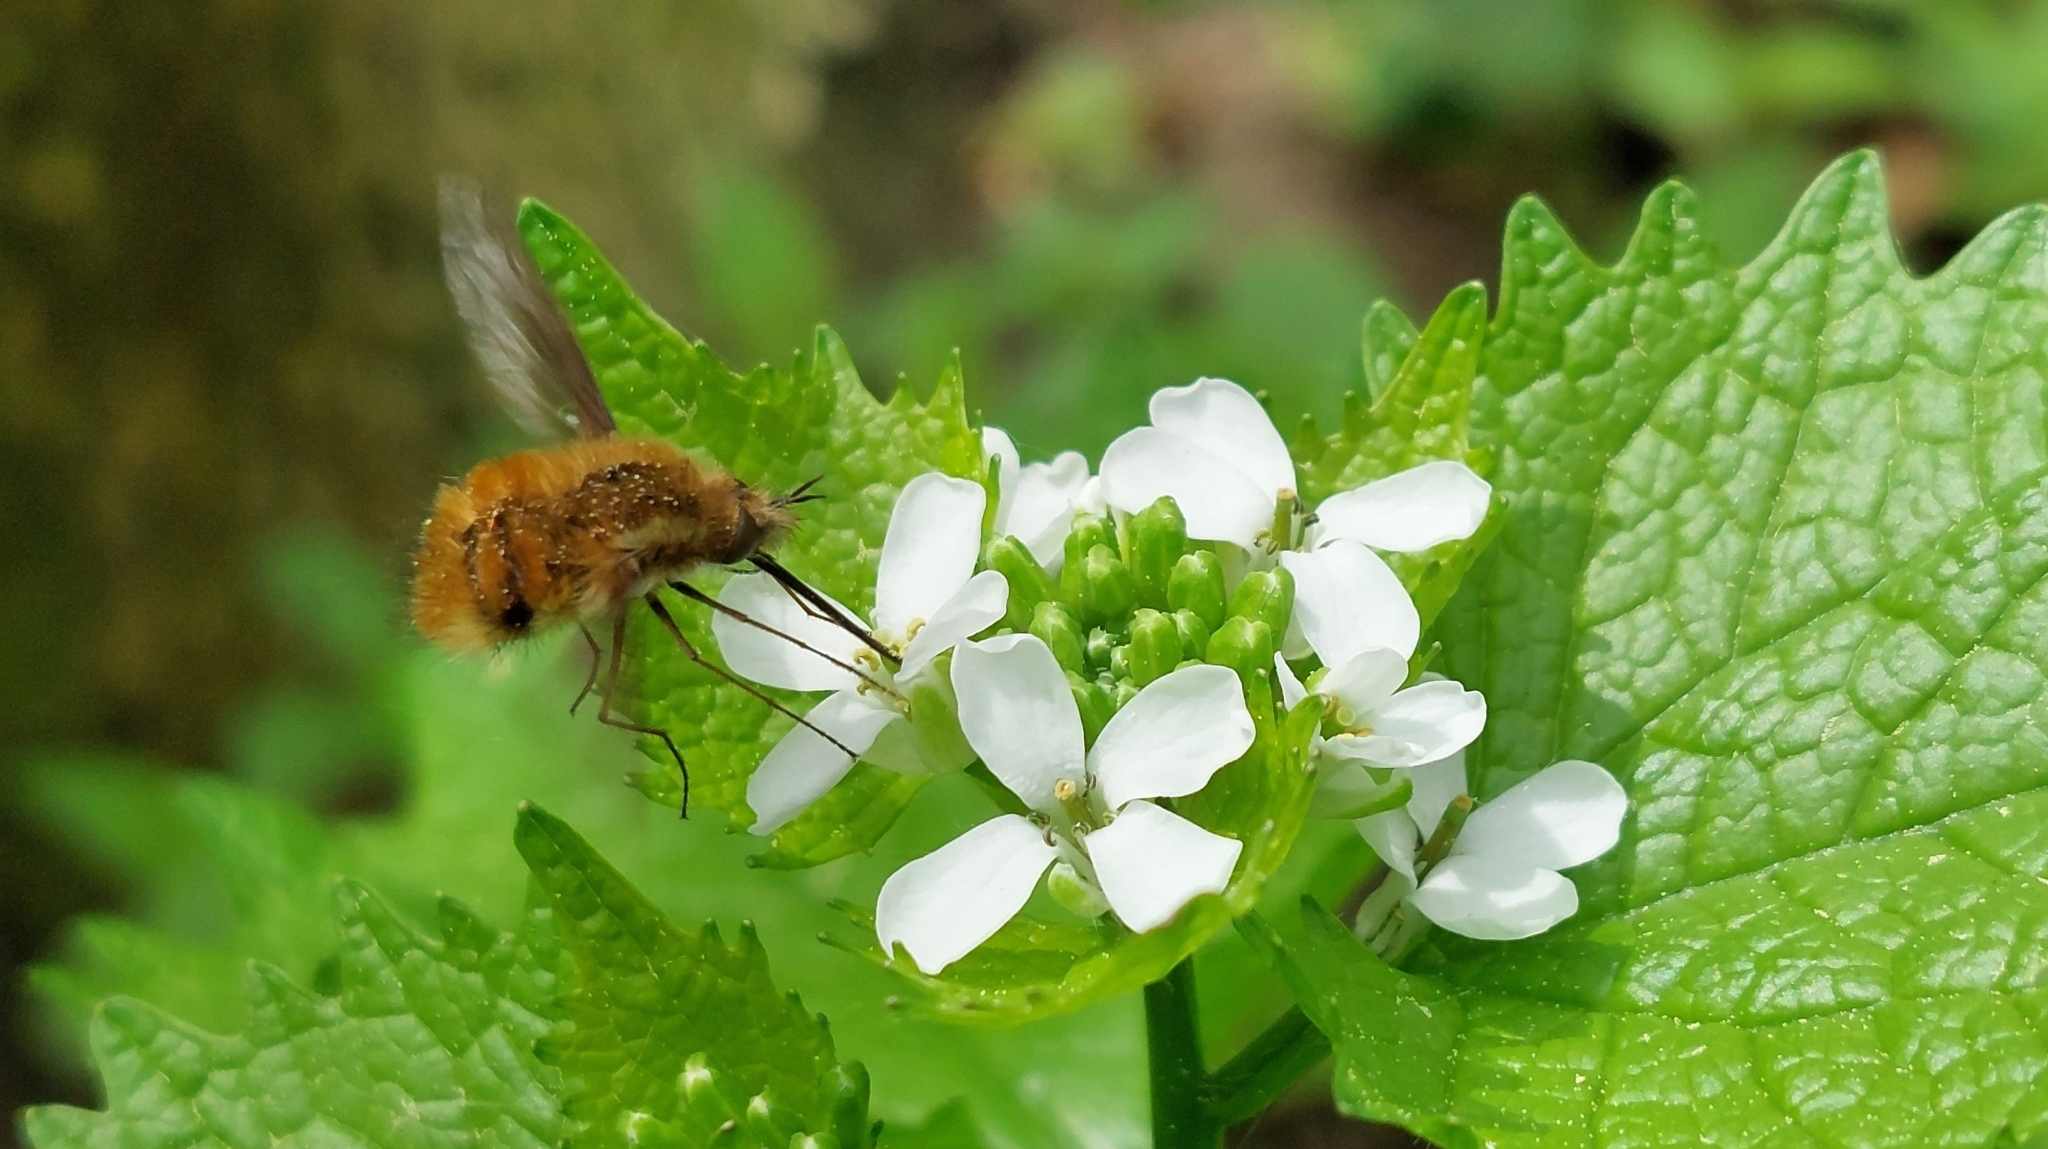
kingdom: Animalia
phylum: Arthropoda
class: Insecta
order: Diptera
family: Bombyliidae
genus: Bombylius
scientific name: Bombylius major
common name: Bee fly
